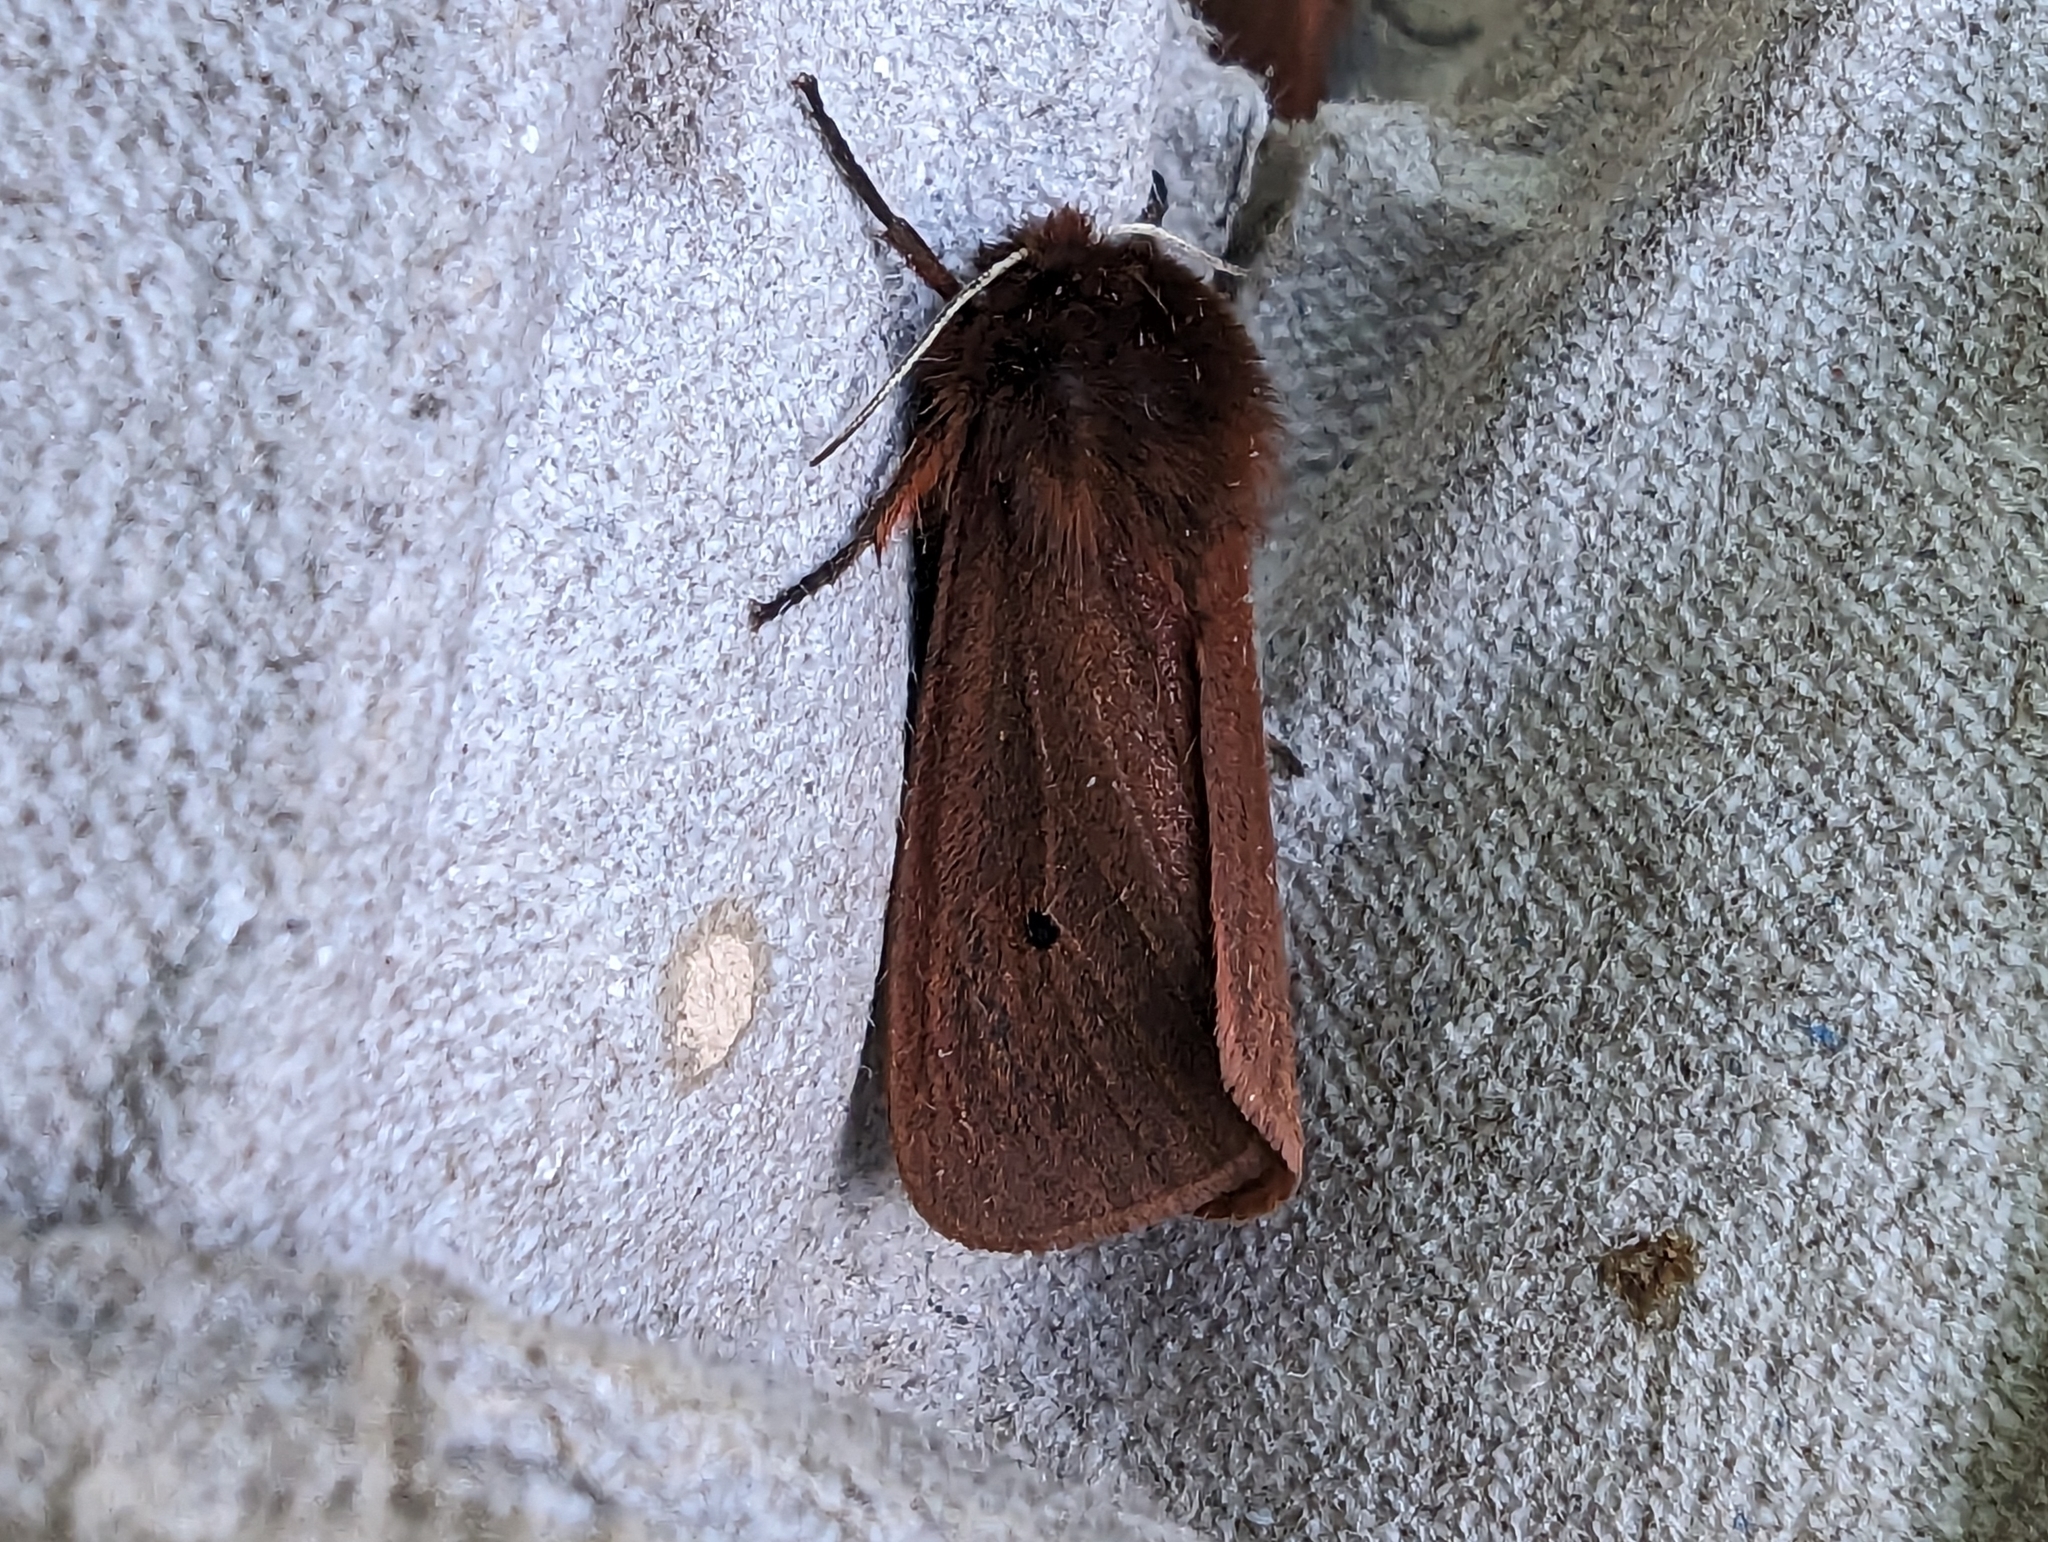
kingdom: Animalia
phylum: Arthropoda
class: Insecta
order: Lepidoptera
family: Erebidae
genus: Phragmatobia
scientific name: Phragmatobia fuliginosa
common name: Ruby tiger
